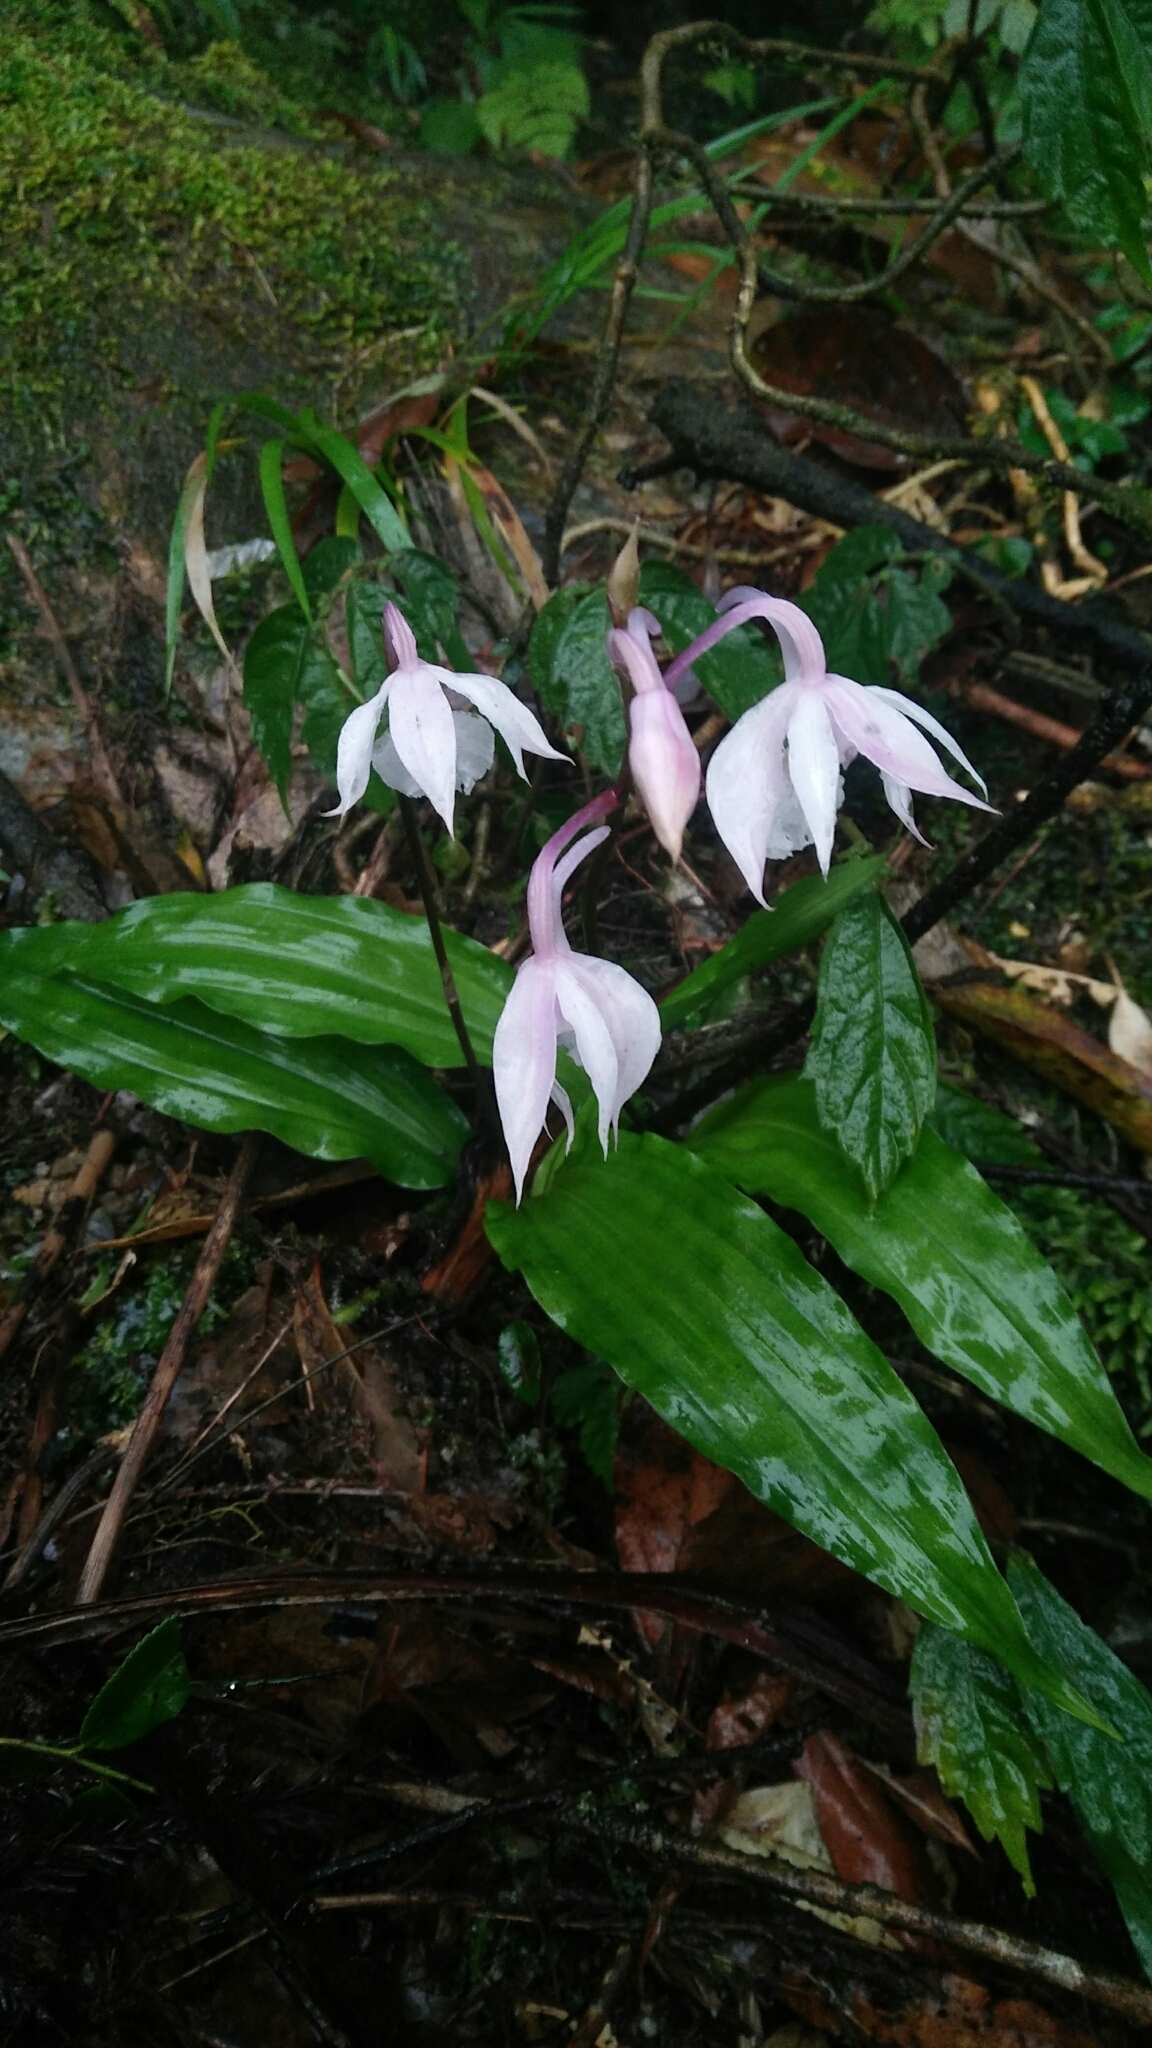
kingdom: Plantae
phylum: Tracheophyta
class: Liliopsida
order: Asparagales
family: Orchidaceae
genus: Calanthe
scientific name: Calanthe arisanensis
